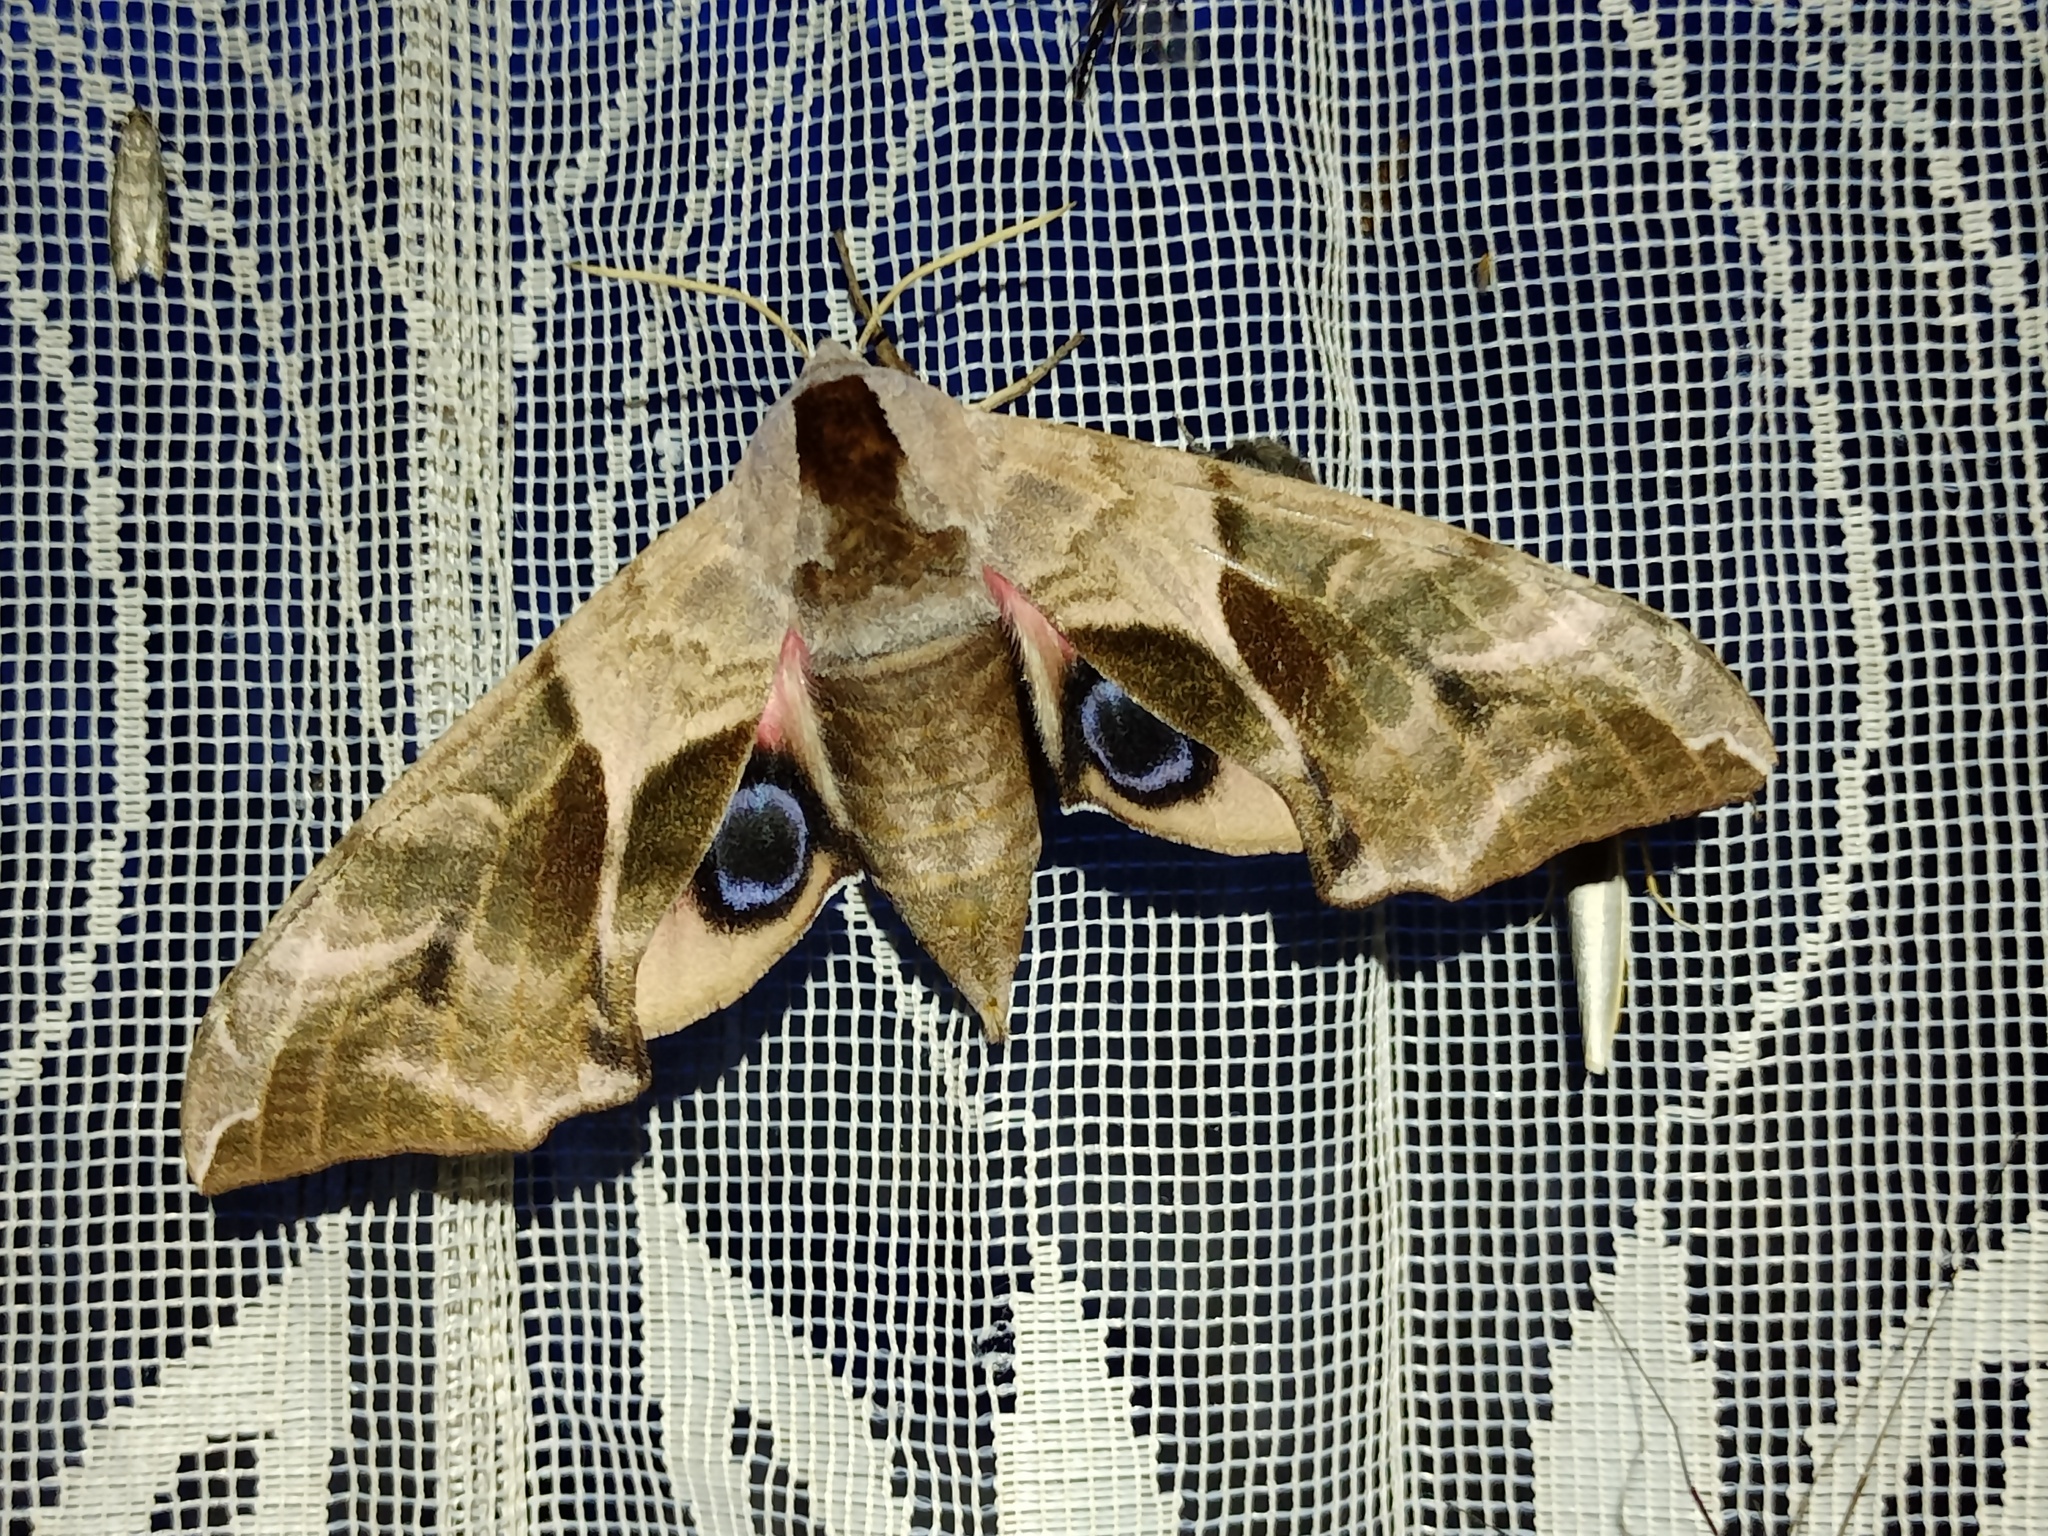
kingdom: Animalia
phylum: Arthropoda
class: Insecta
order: Lepidoptera
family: Sphingidae
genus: Smerinthus
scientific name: Smerinthus ocellata
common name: Eyed hawk-moth
